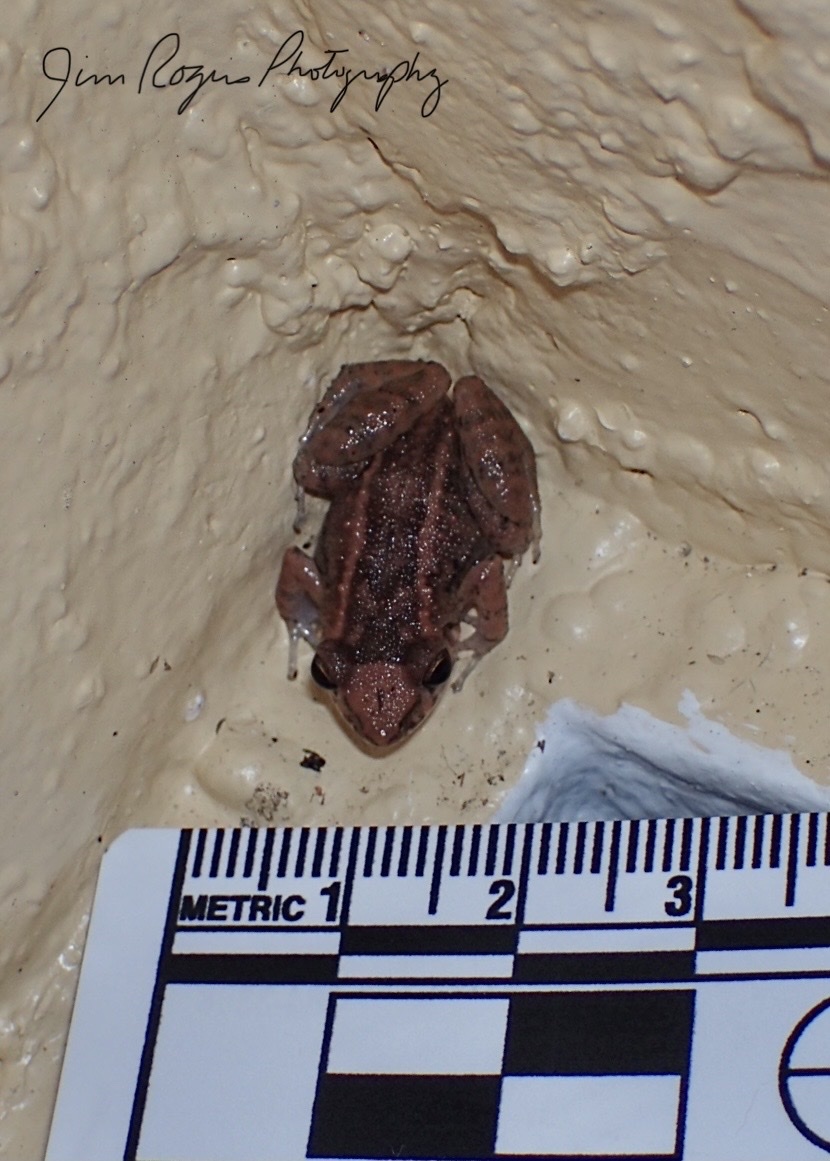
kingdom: Animalia
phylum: Chordata
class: Amphibia
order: Anura
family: Eleutherodactylidae
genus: Eleutherodactylus
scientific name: Eleutherodactylus planirostris
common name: Greenhouse frog
